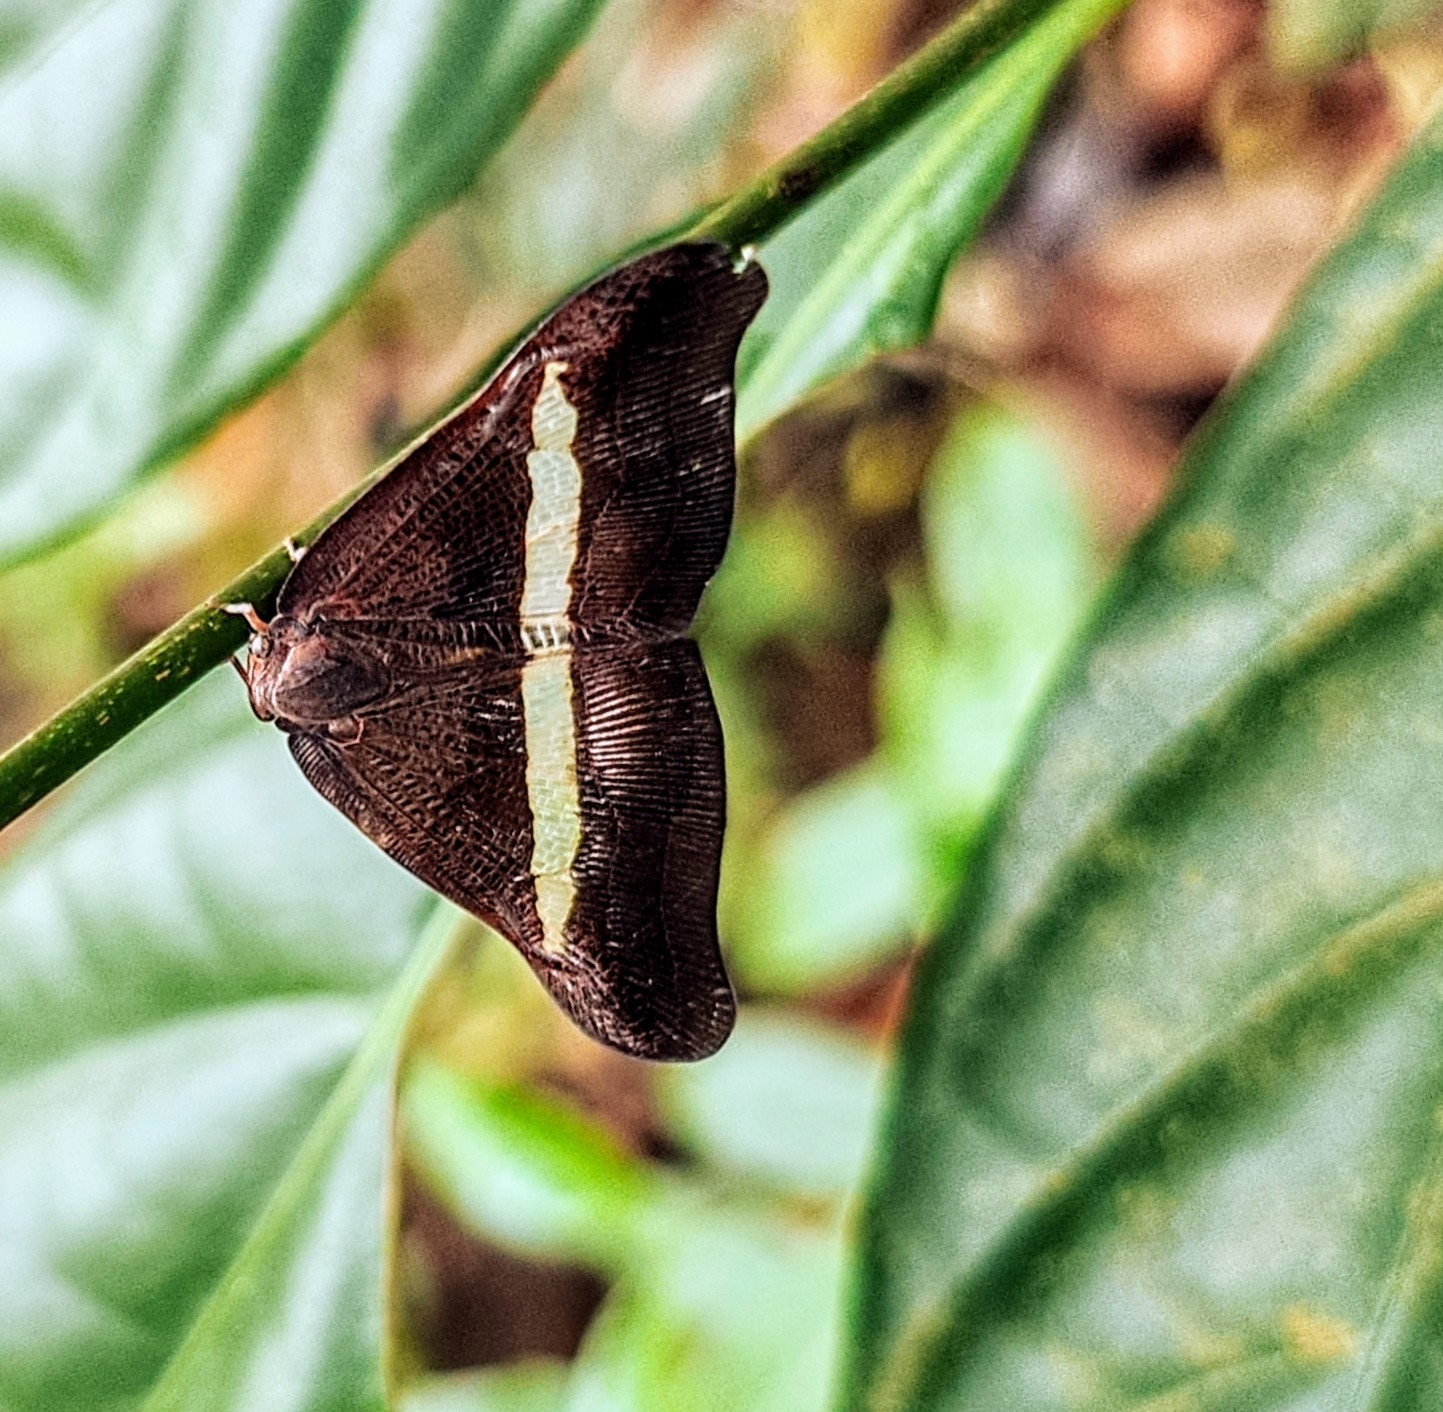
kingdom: Animalia
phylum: Arthropoda
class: Insecta
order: Hemiptera
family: Ricaniidae
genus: Pochazia
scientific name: Pochazia sinuata
